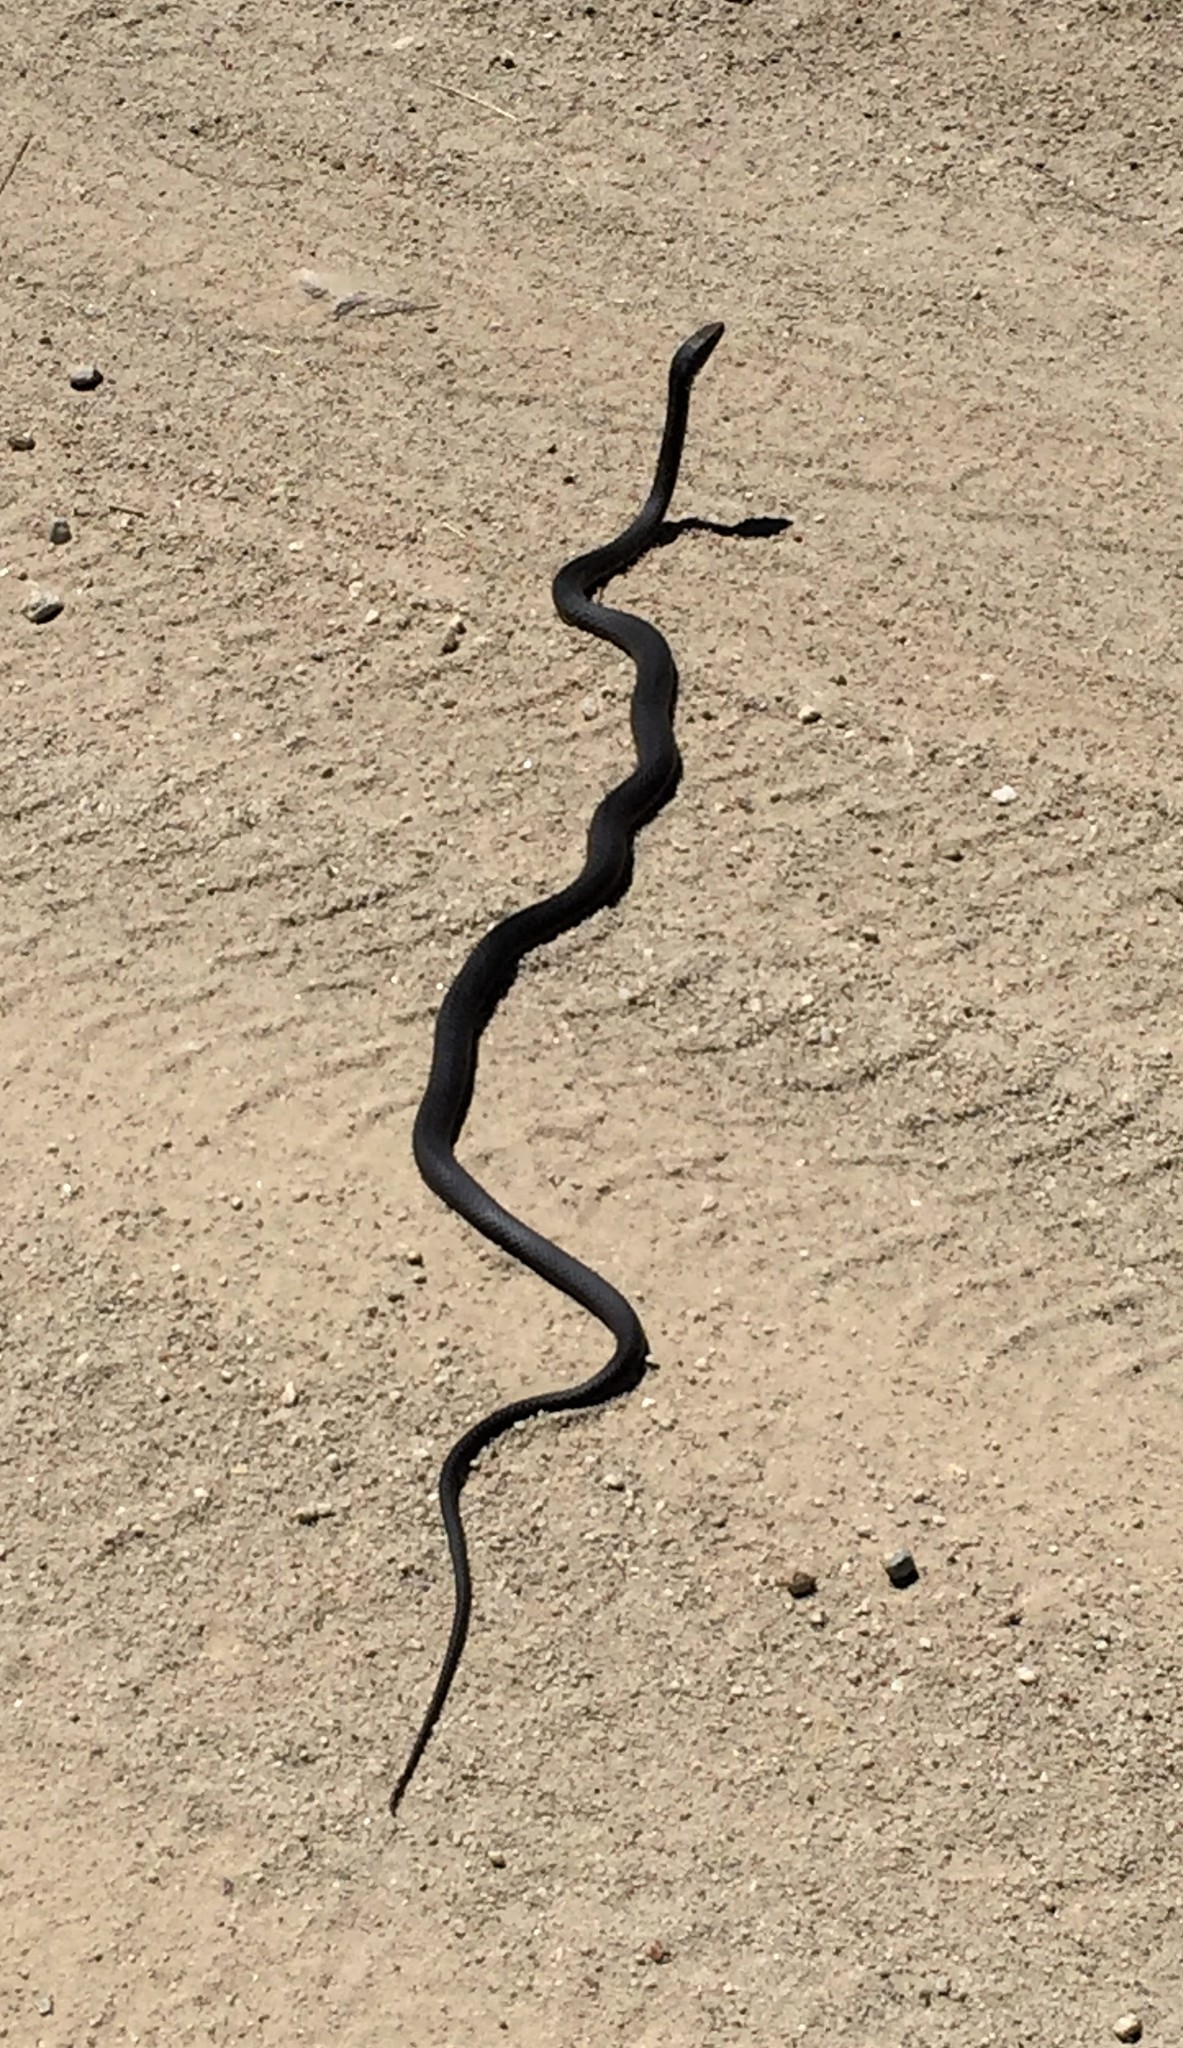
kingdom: Animalia
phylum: Chordata
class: Squamata
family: Colubridae
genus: Masticophis
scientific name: Masticophis fuliginosus
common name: Baja california coachwhip
